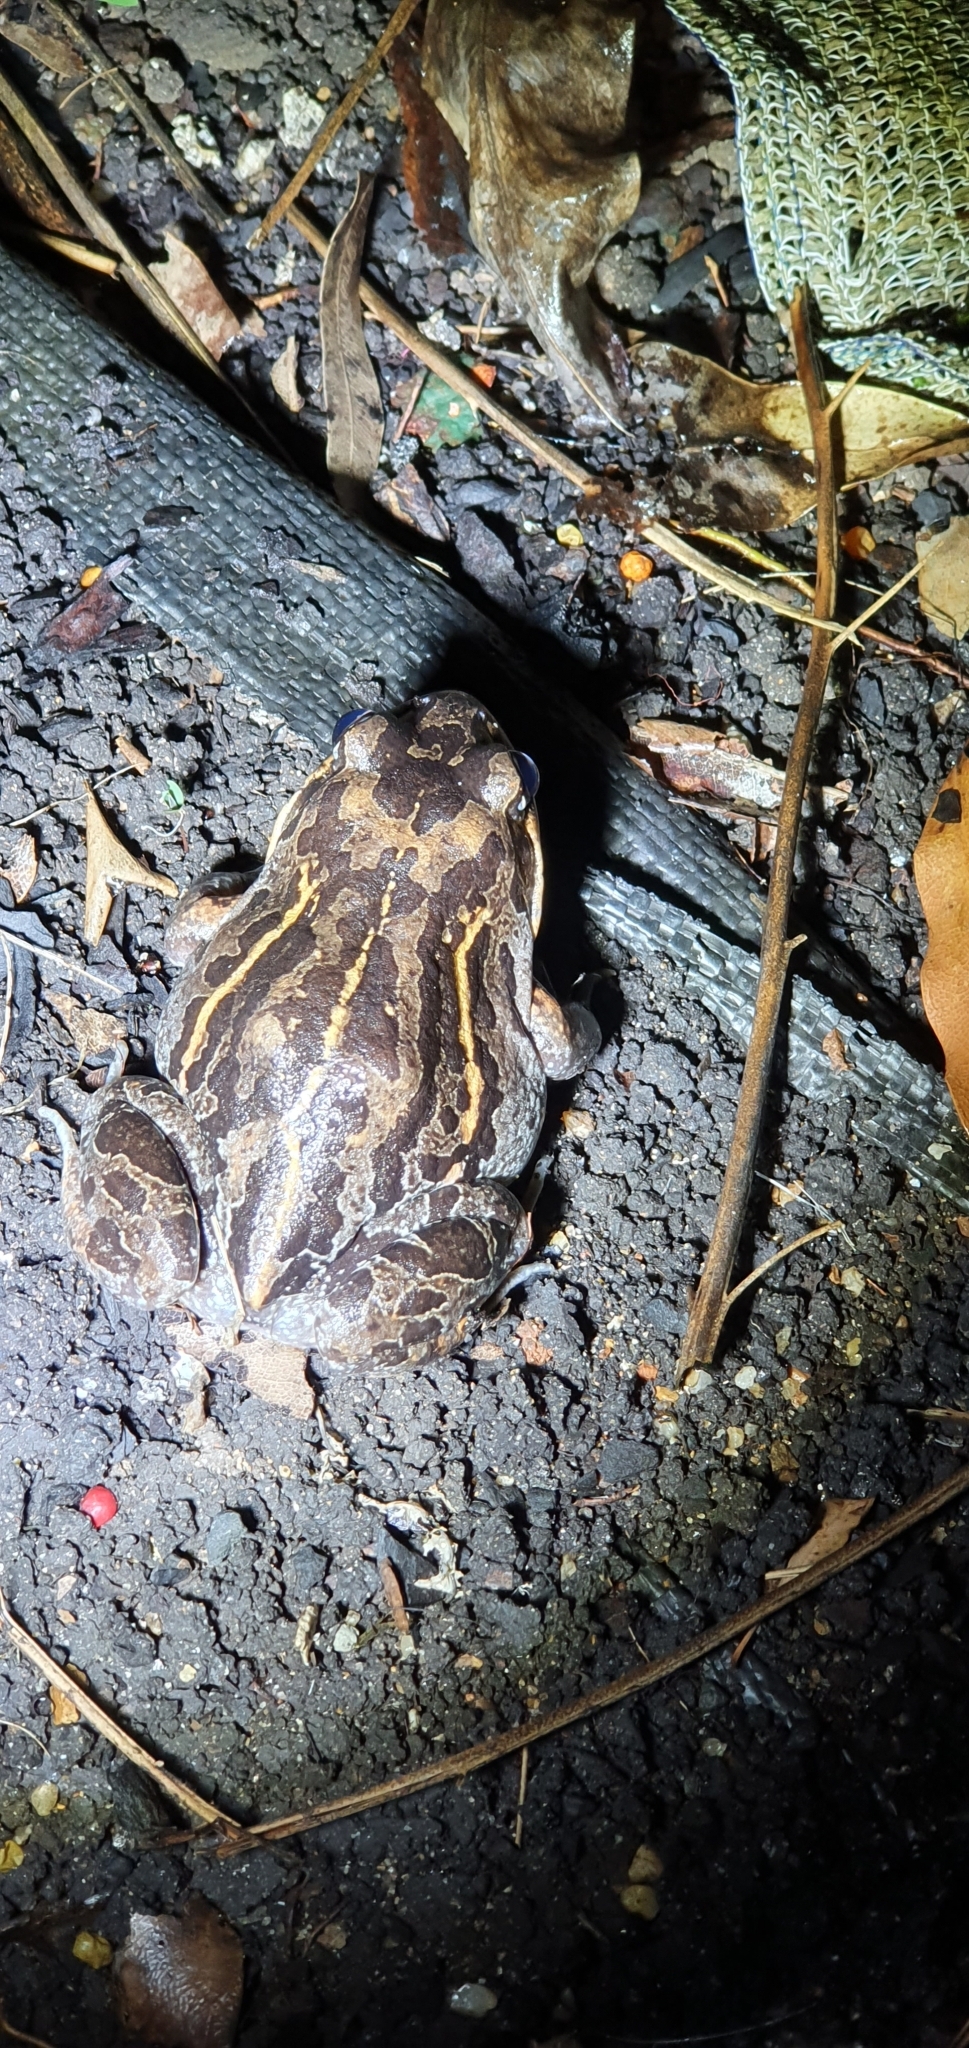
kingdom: Animalia
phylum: Chordata
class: Amphibia
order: Anura
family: Limnodynastidae
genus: Limnodynastes
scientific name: Limnodynastes salmini
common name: Salmon-striped frog
